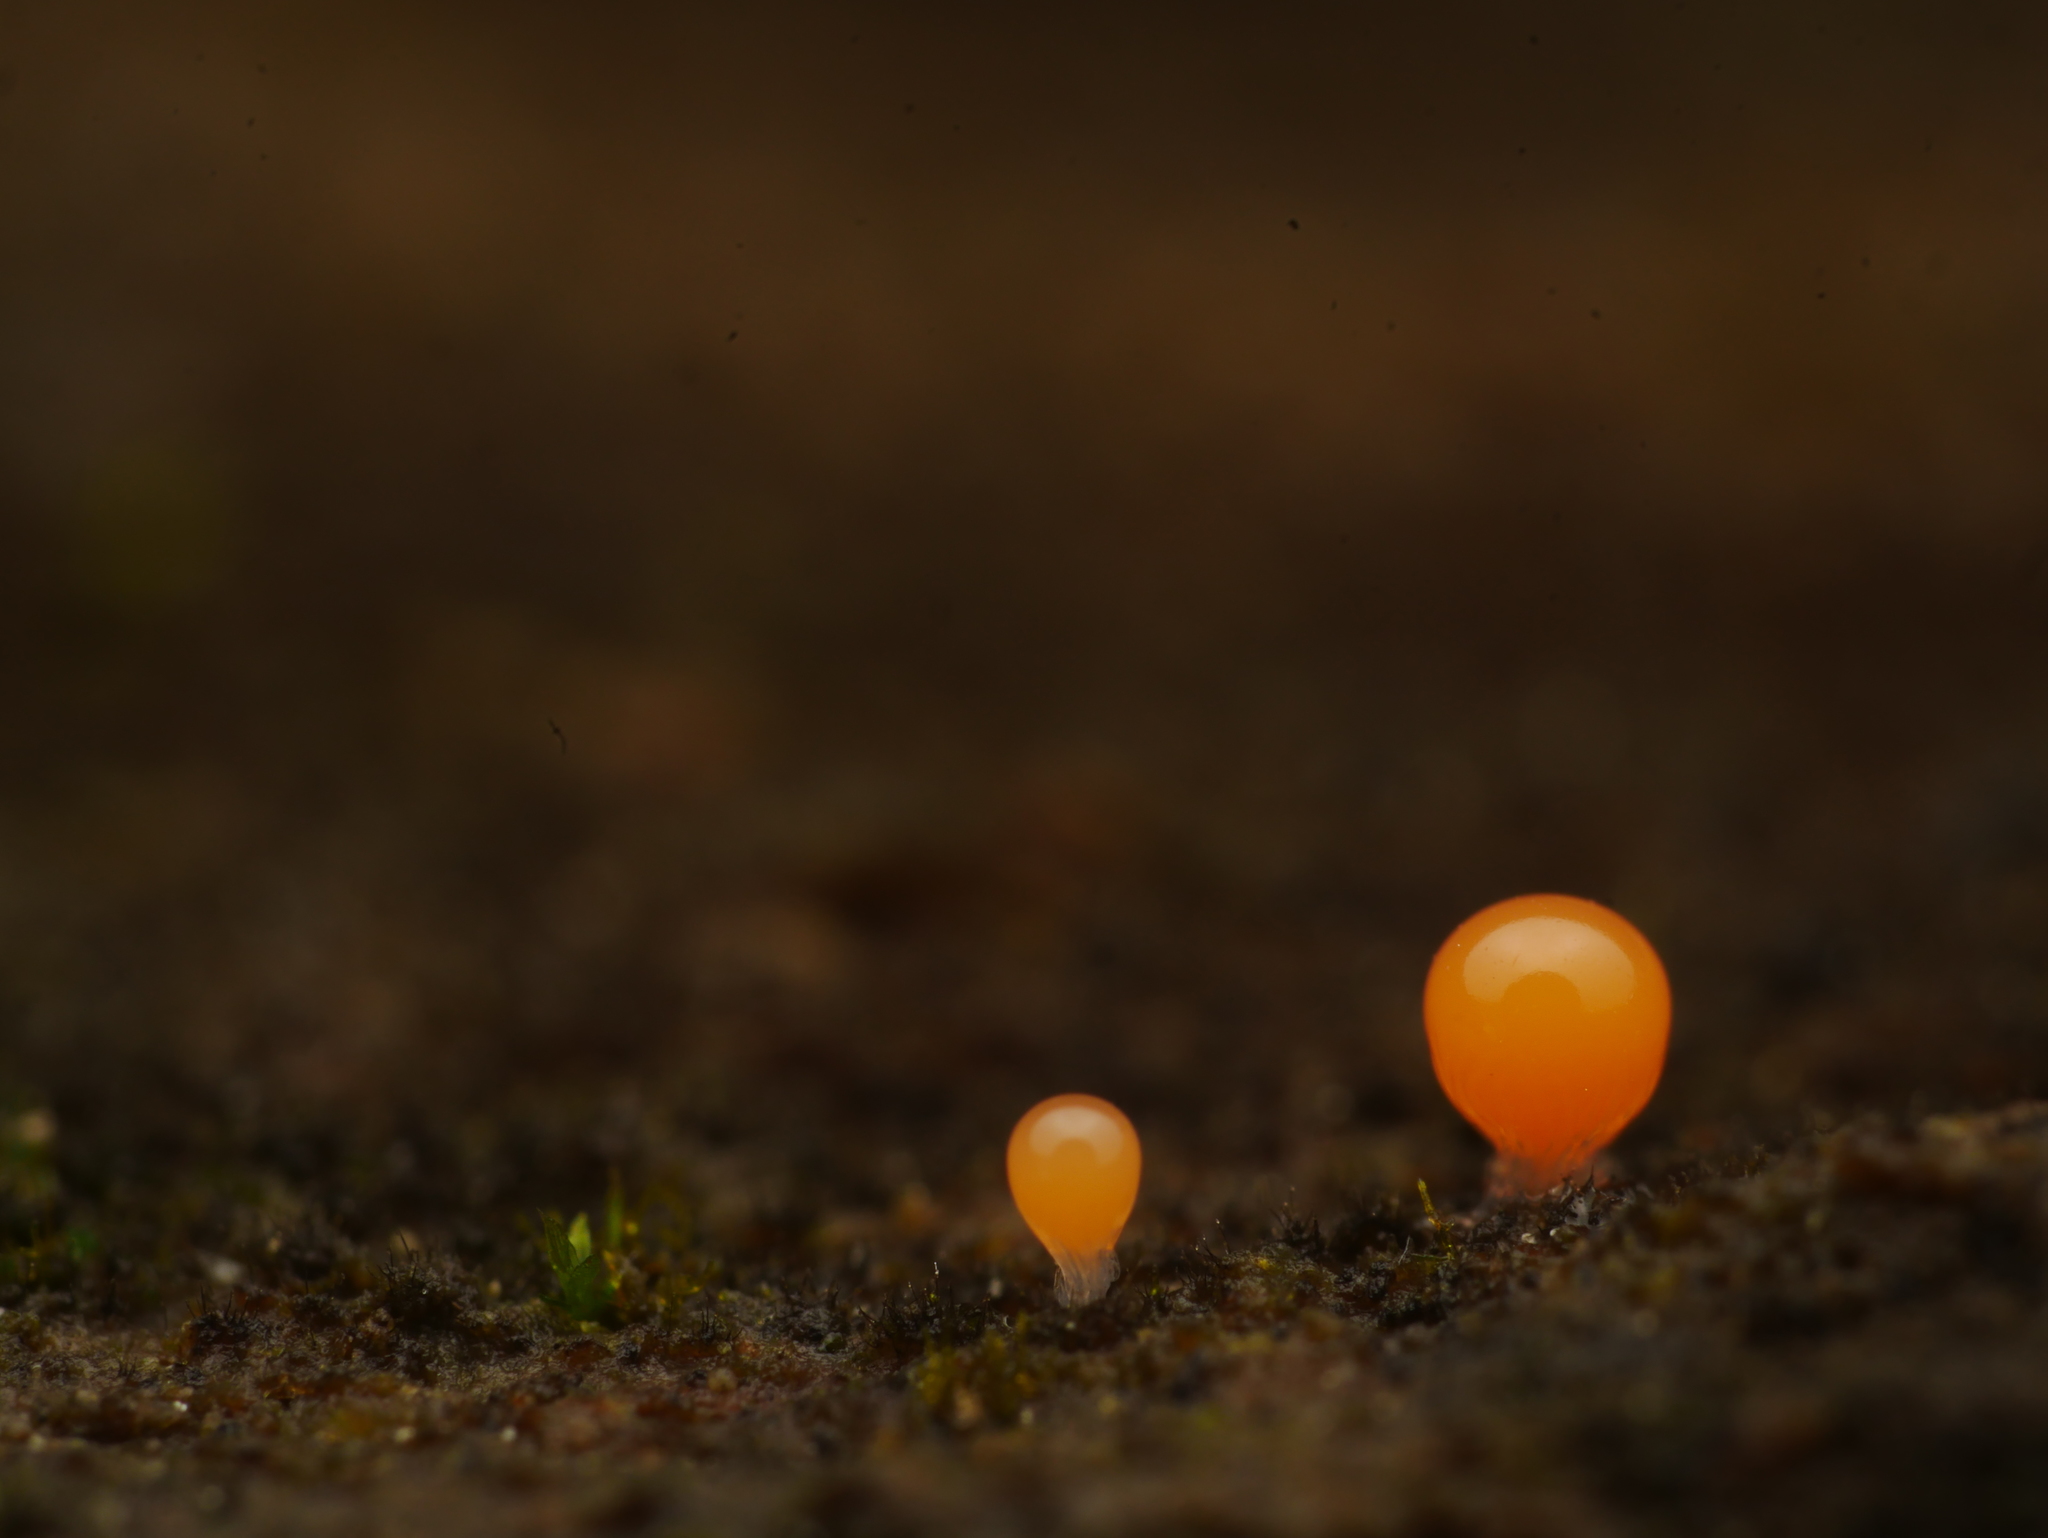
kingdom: Protozoa
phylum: Mycetozoa
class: Myxomycetes
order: Trichiales
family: Arcyriaceae
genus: Hemitrichia
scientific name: Hemitrichia decipiens
